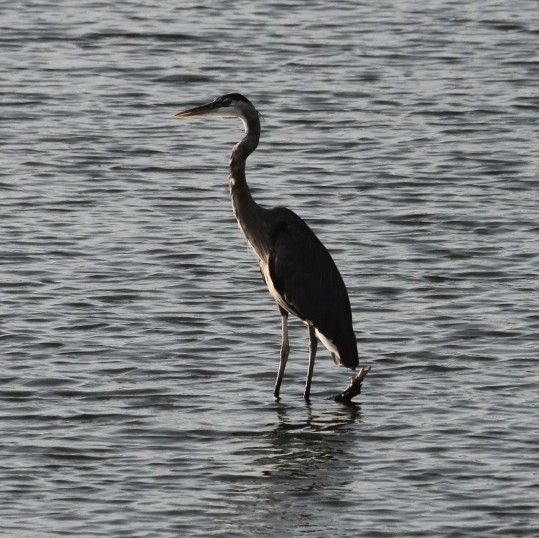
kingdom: Animalia
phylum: Chordata
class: Aves
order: Pelecaniformes
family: Ardeidae
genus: Ardea
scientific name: Ardea herodias
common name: Great blue heron
